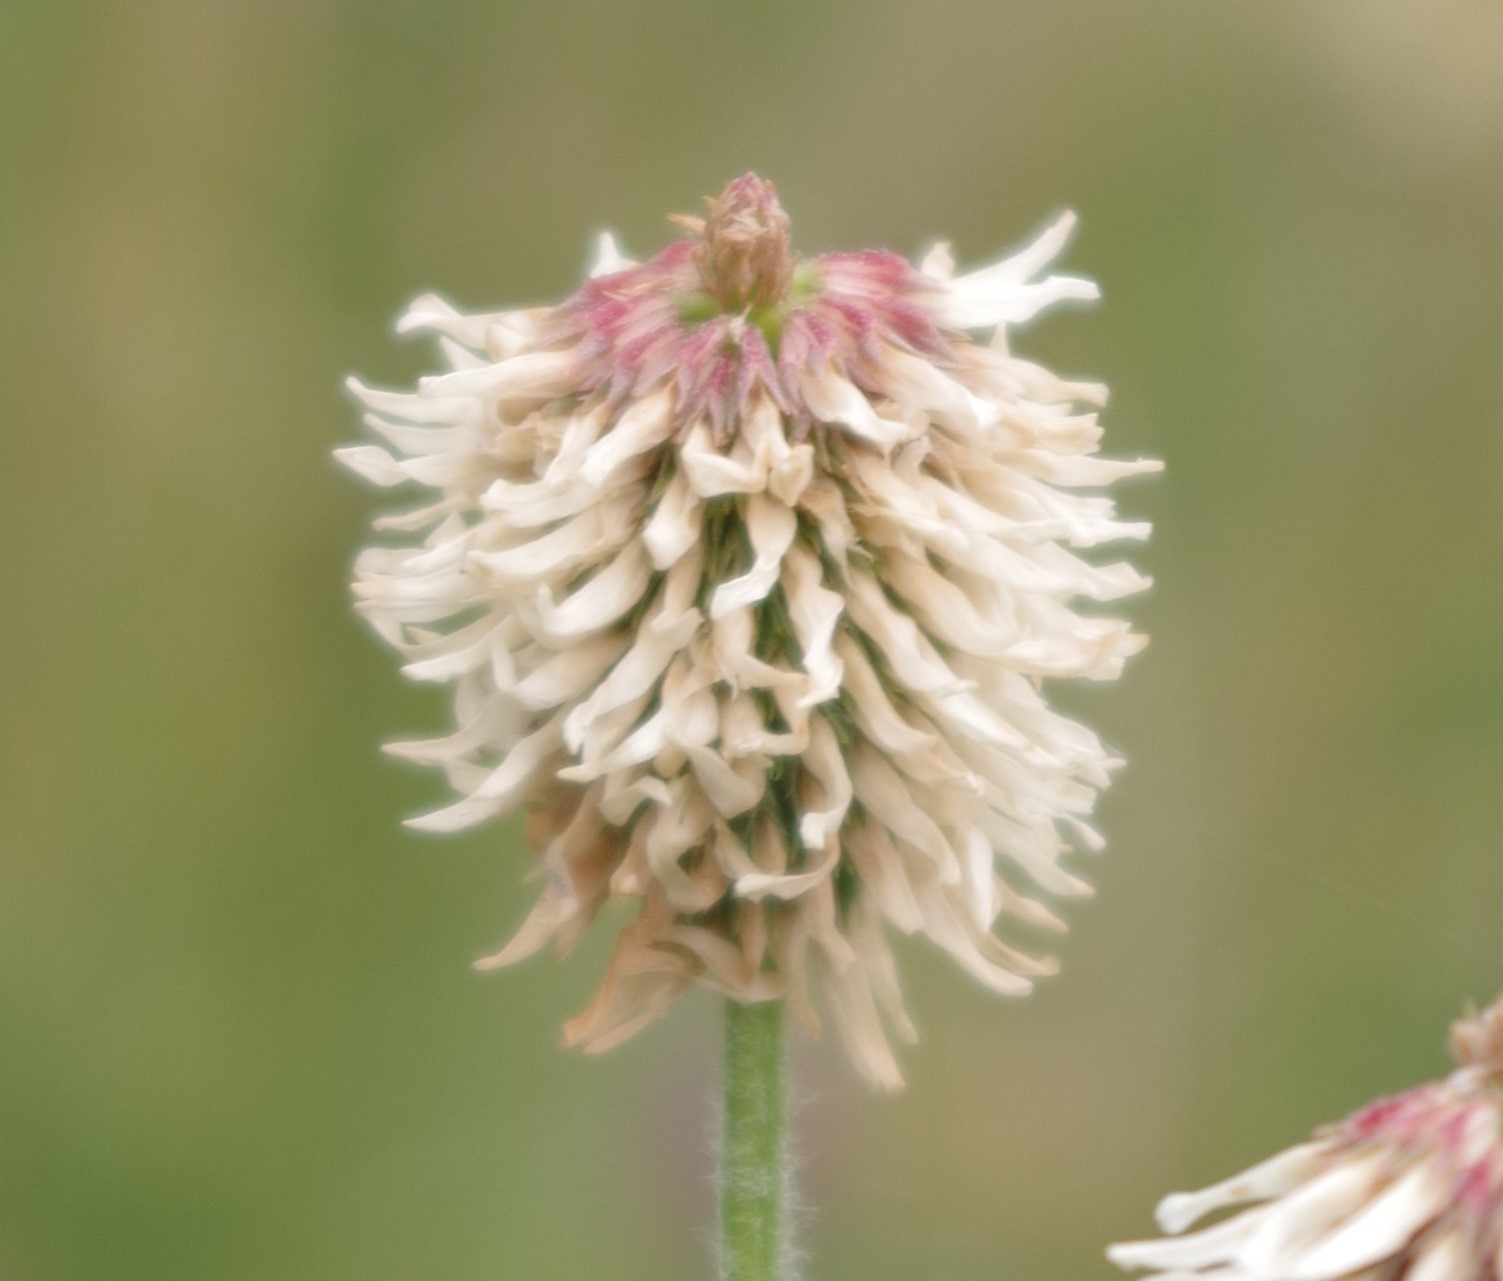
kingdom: Plantae
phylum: Tracheophyta
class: Magnoliopsida
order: Fabales
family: Fabaceae
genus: Trifolium
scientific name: Trifolium montanum
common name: Mountain clover
